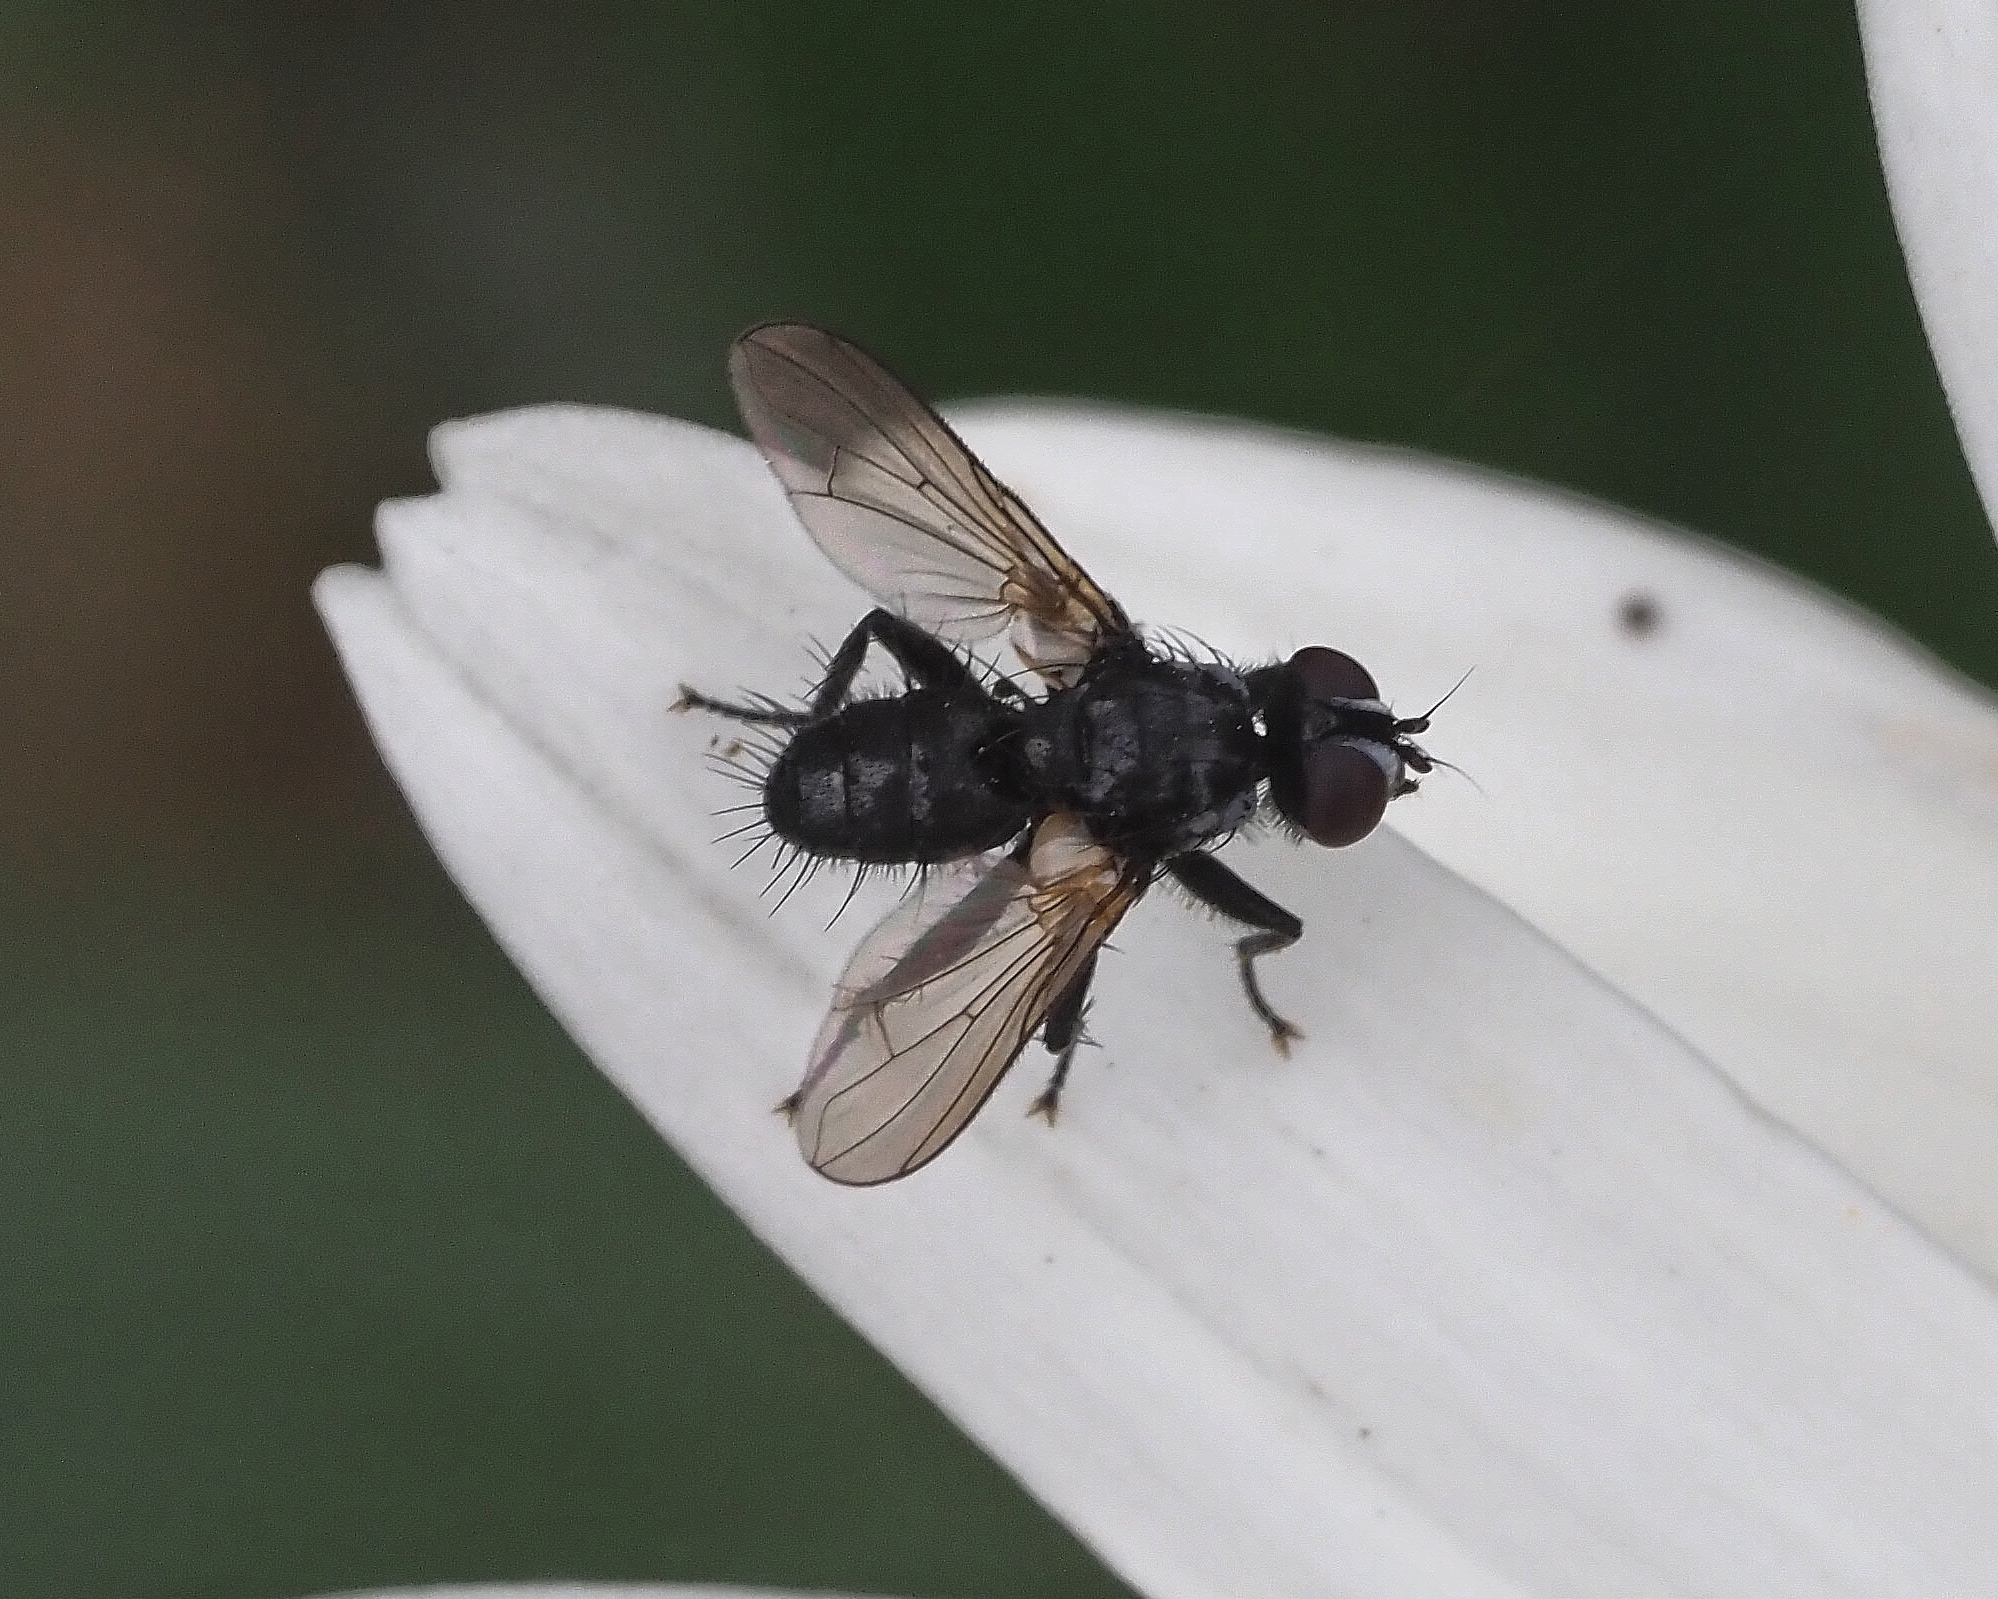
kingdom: Animalia
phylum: Arthropoda
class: Insecta
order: Diptera
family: Tachinidae
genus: Phania
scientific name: Phania funesta
